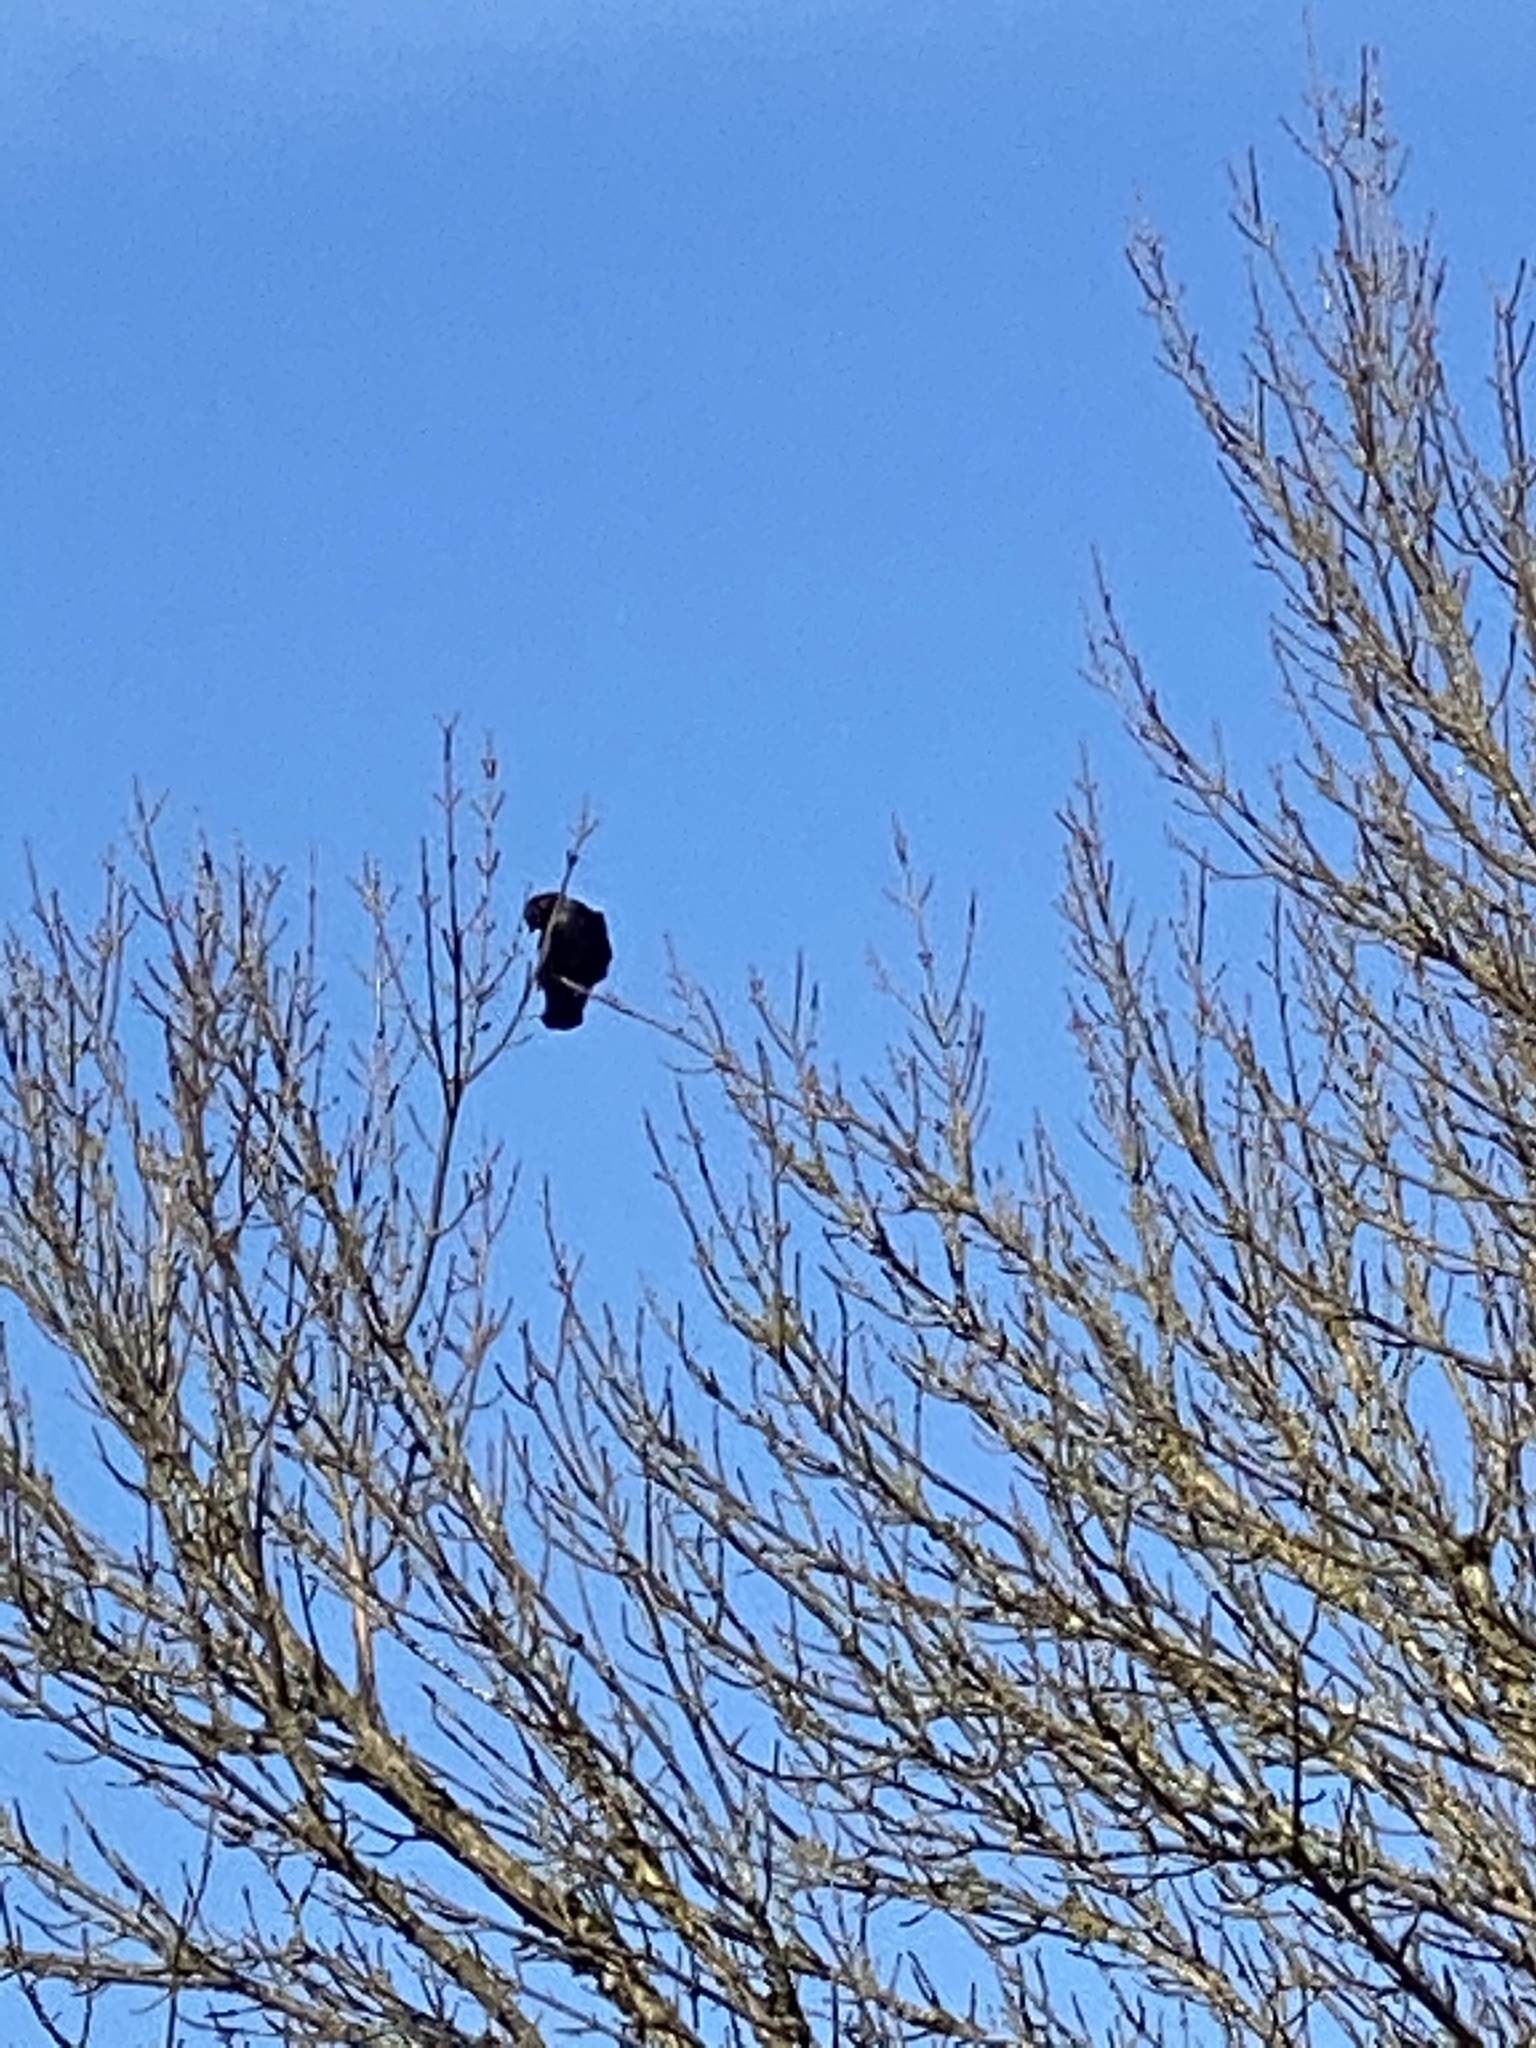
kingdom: Animalia
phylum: Chordata
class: Aves
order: Passeriformes
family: Corvidae
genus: Corvus
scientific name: Corvus brachyrhynchos
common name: American crow
